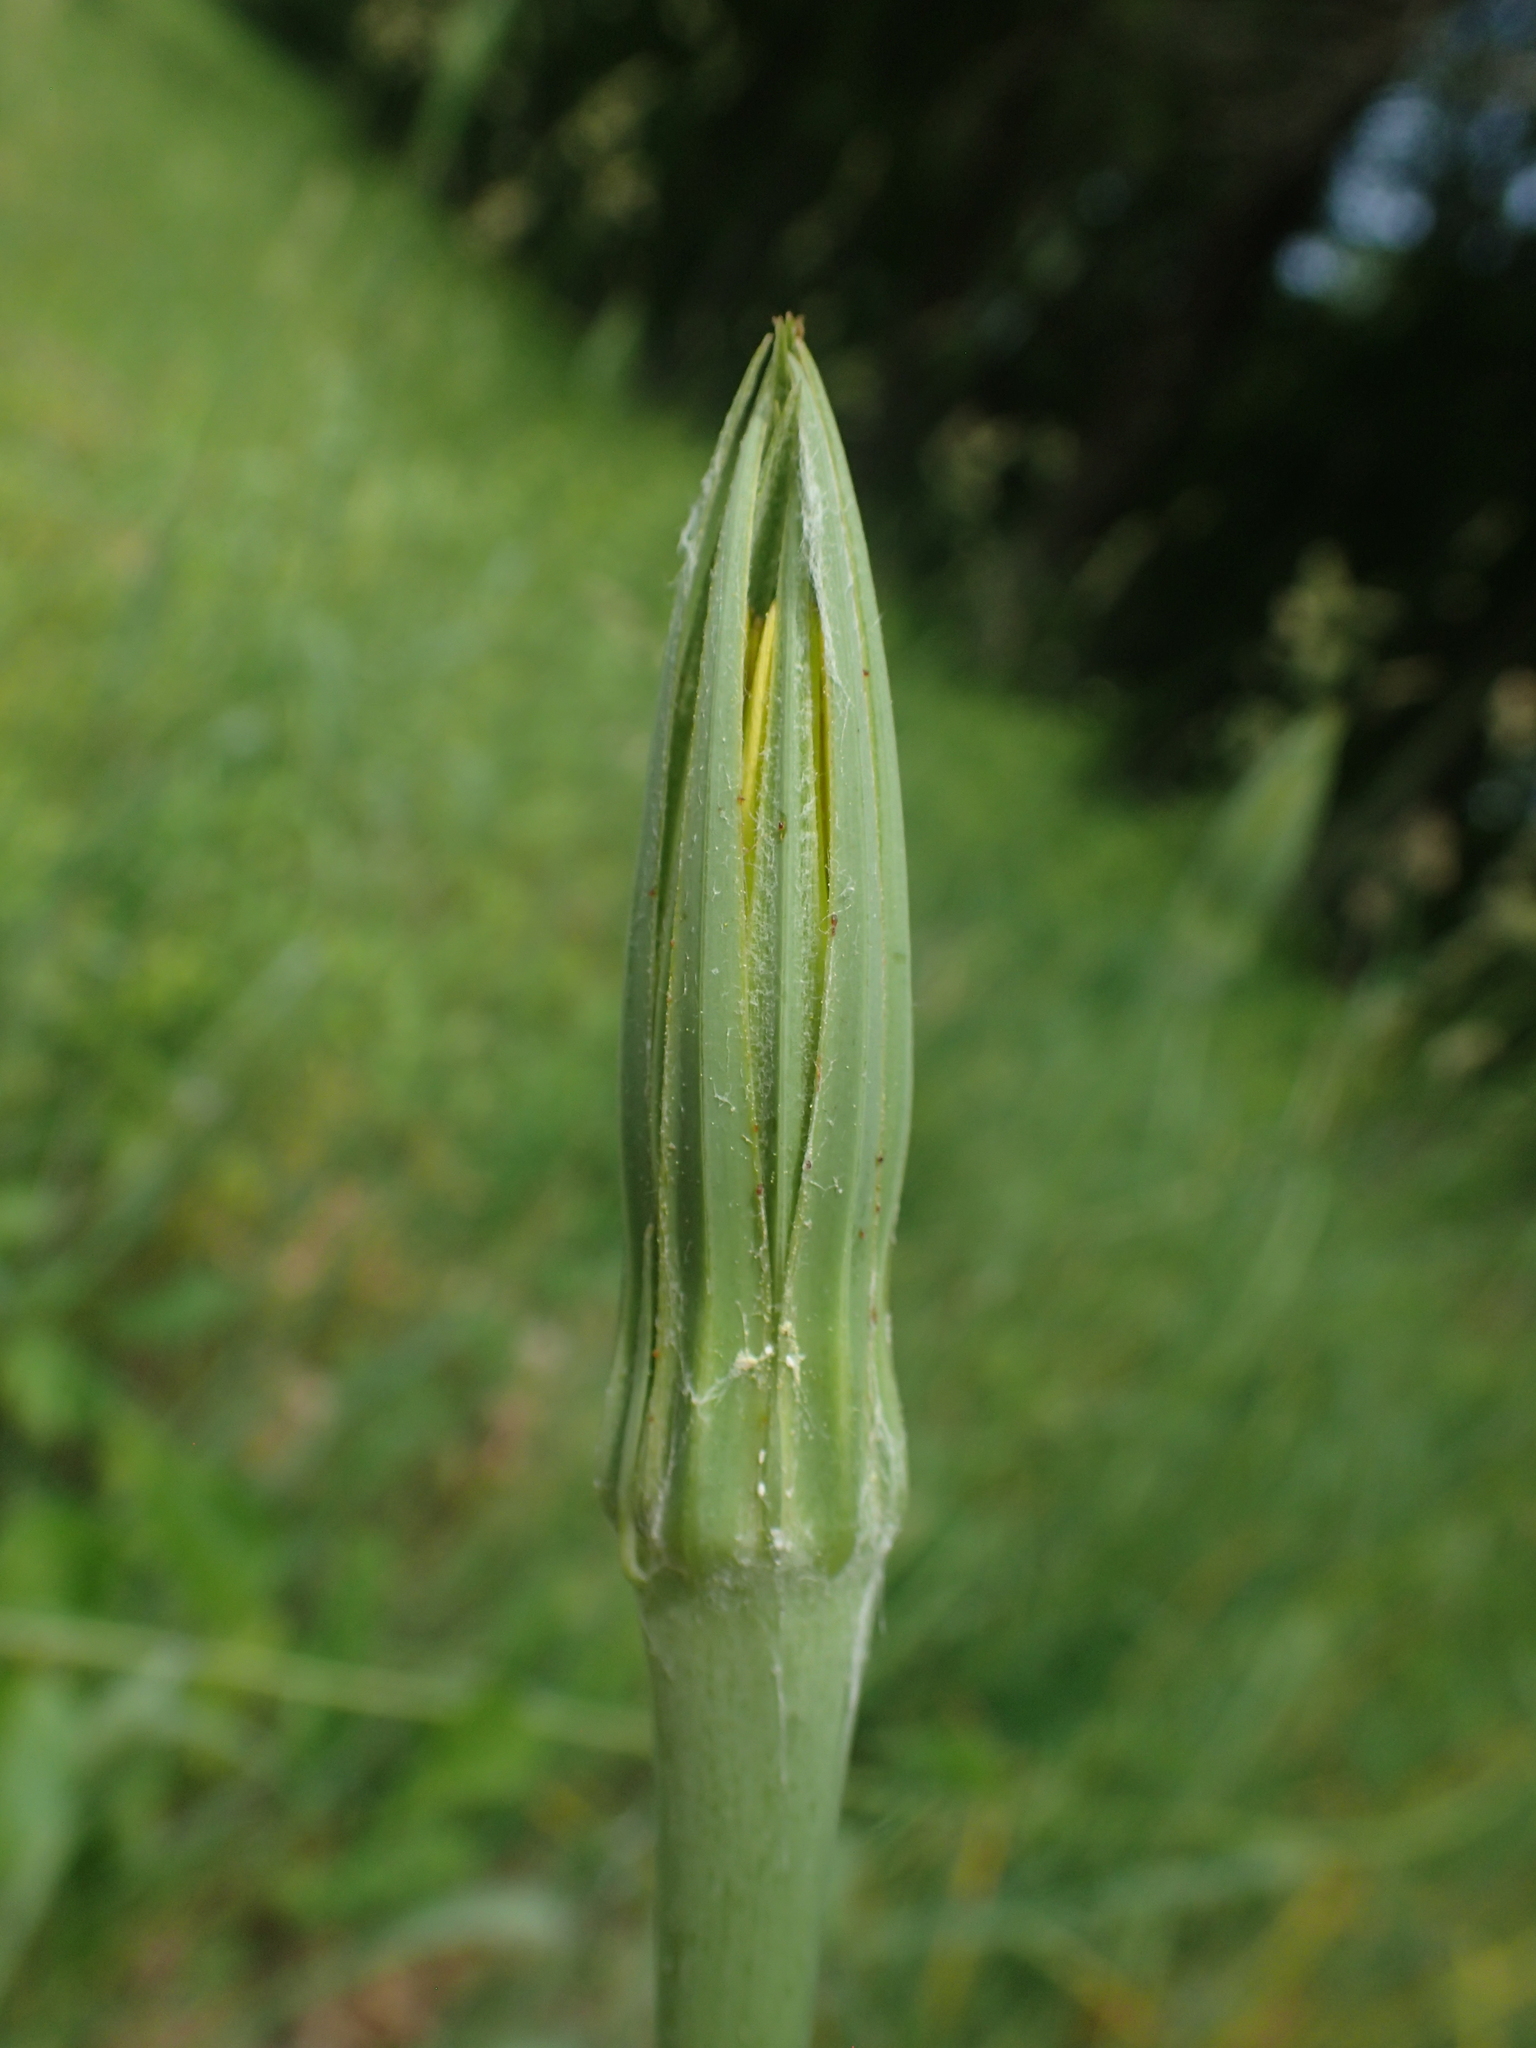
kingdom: Plantae
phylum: Tracheophyta
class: Magnoliopsida
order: Asterales
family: Asteraceae
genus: Tragopogon
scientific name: Tragopogon dubius
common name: Yellow salsify
